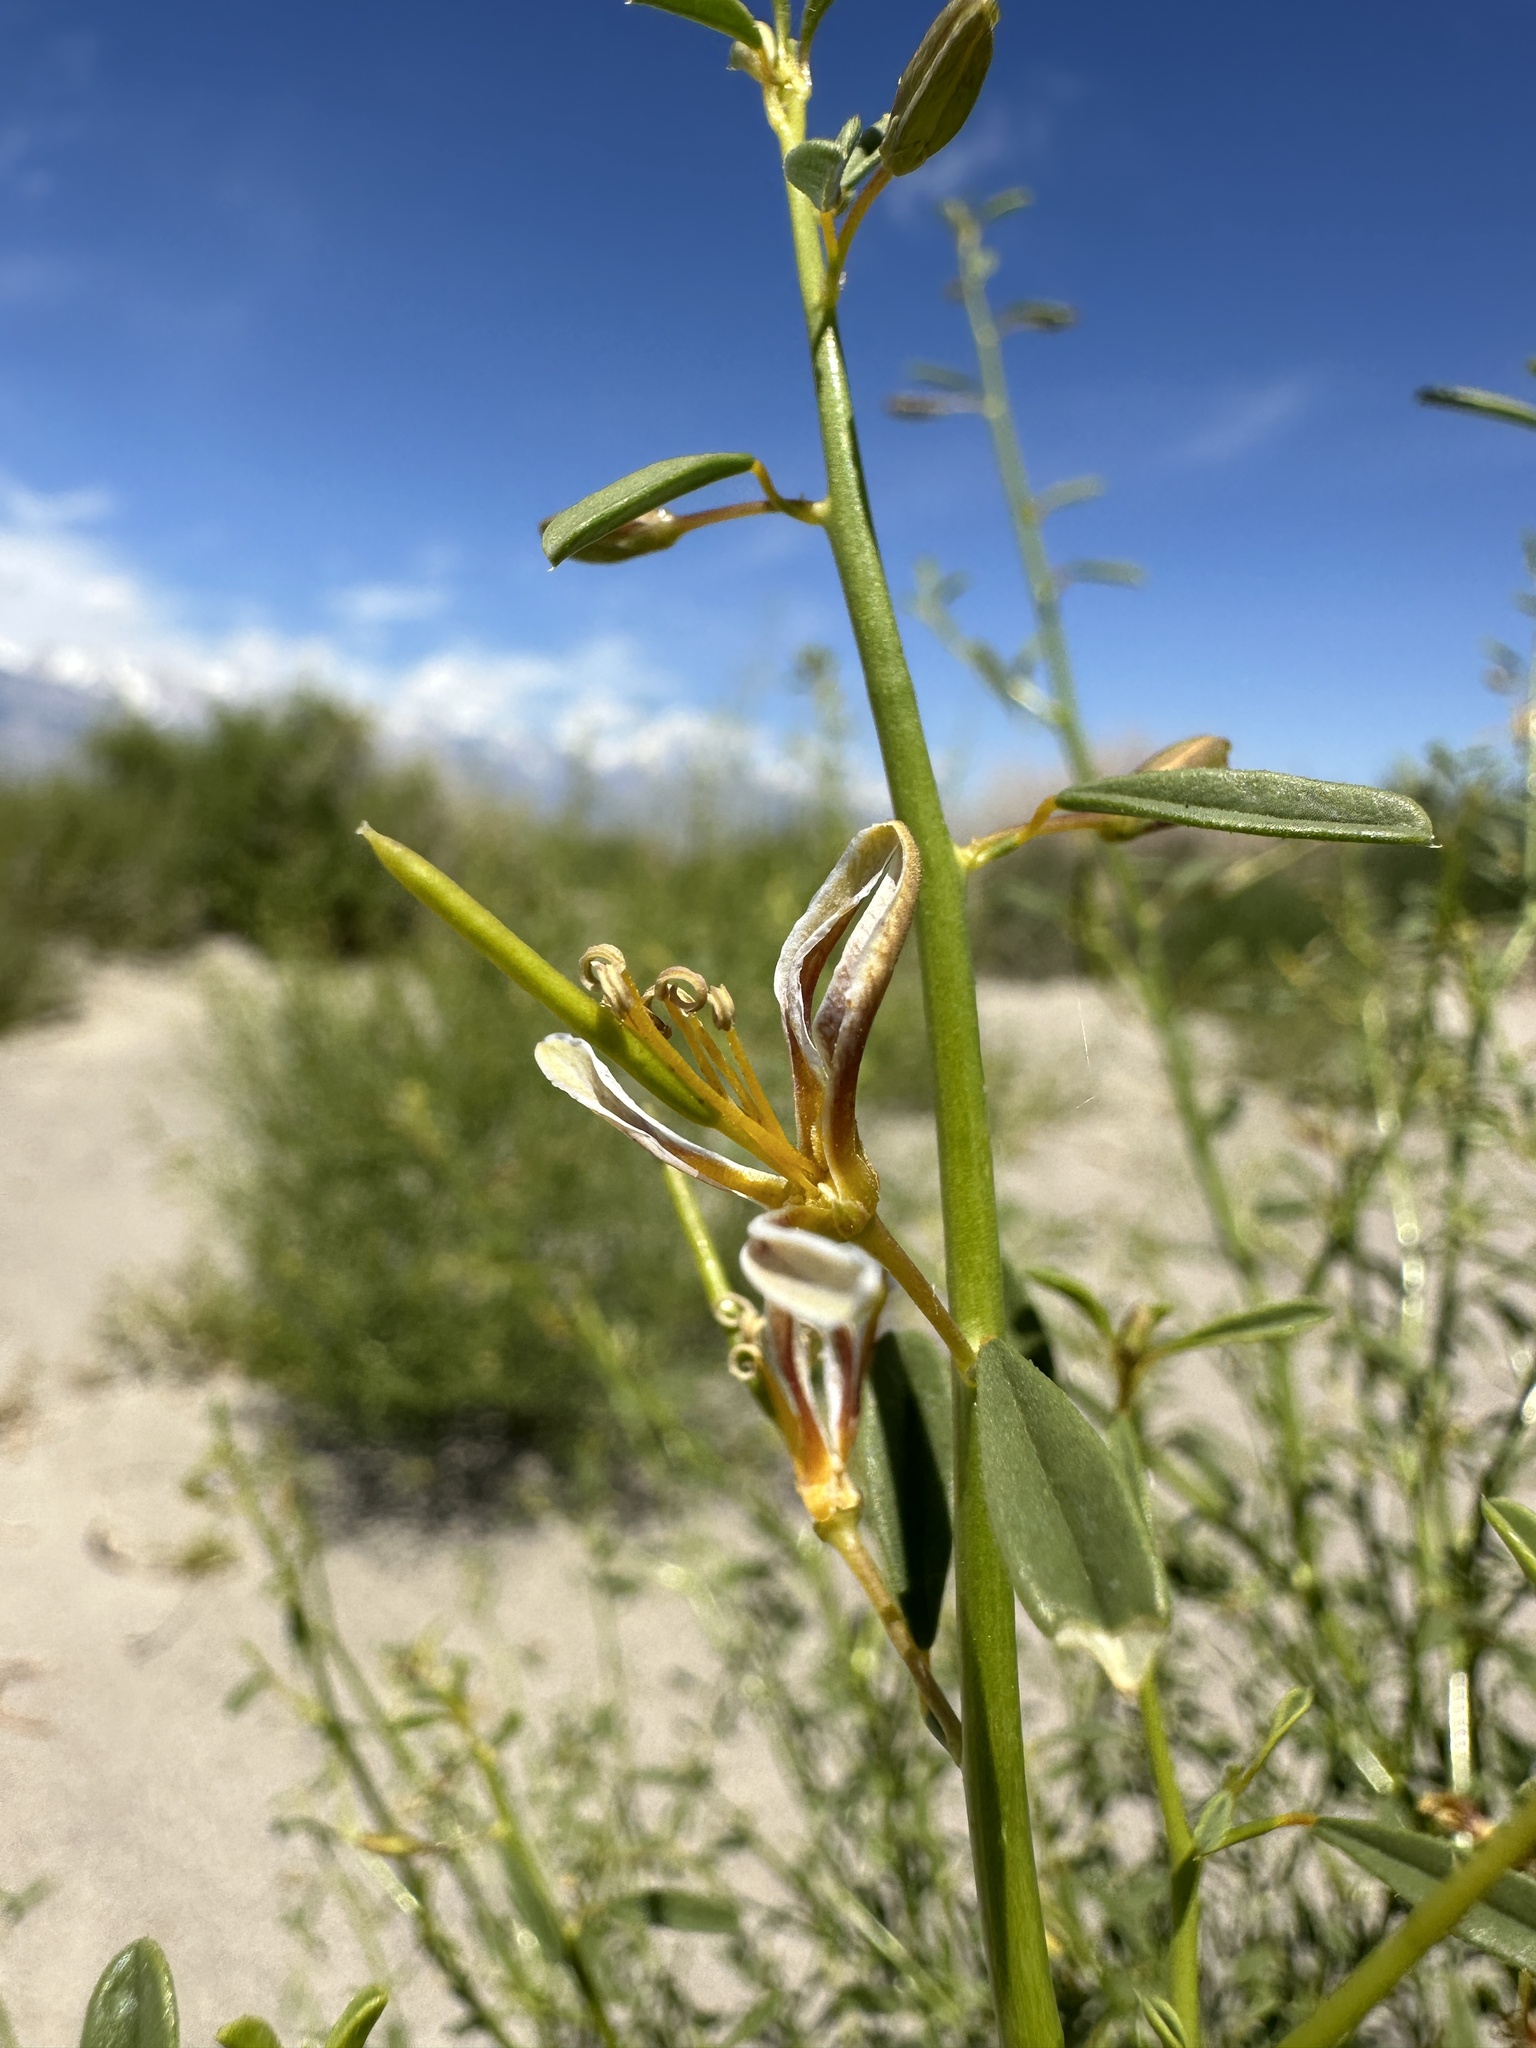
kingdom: Plantae
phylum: Tracheophyta
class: Magnoliopsida
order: Brassicales
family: Cleomaceae
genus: Cleomella
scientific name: Cleomella sparsifolia
